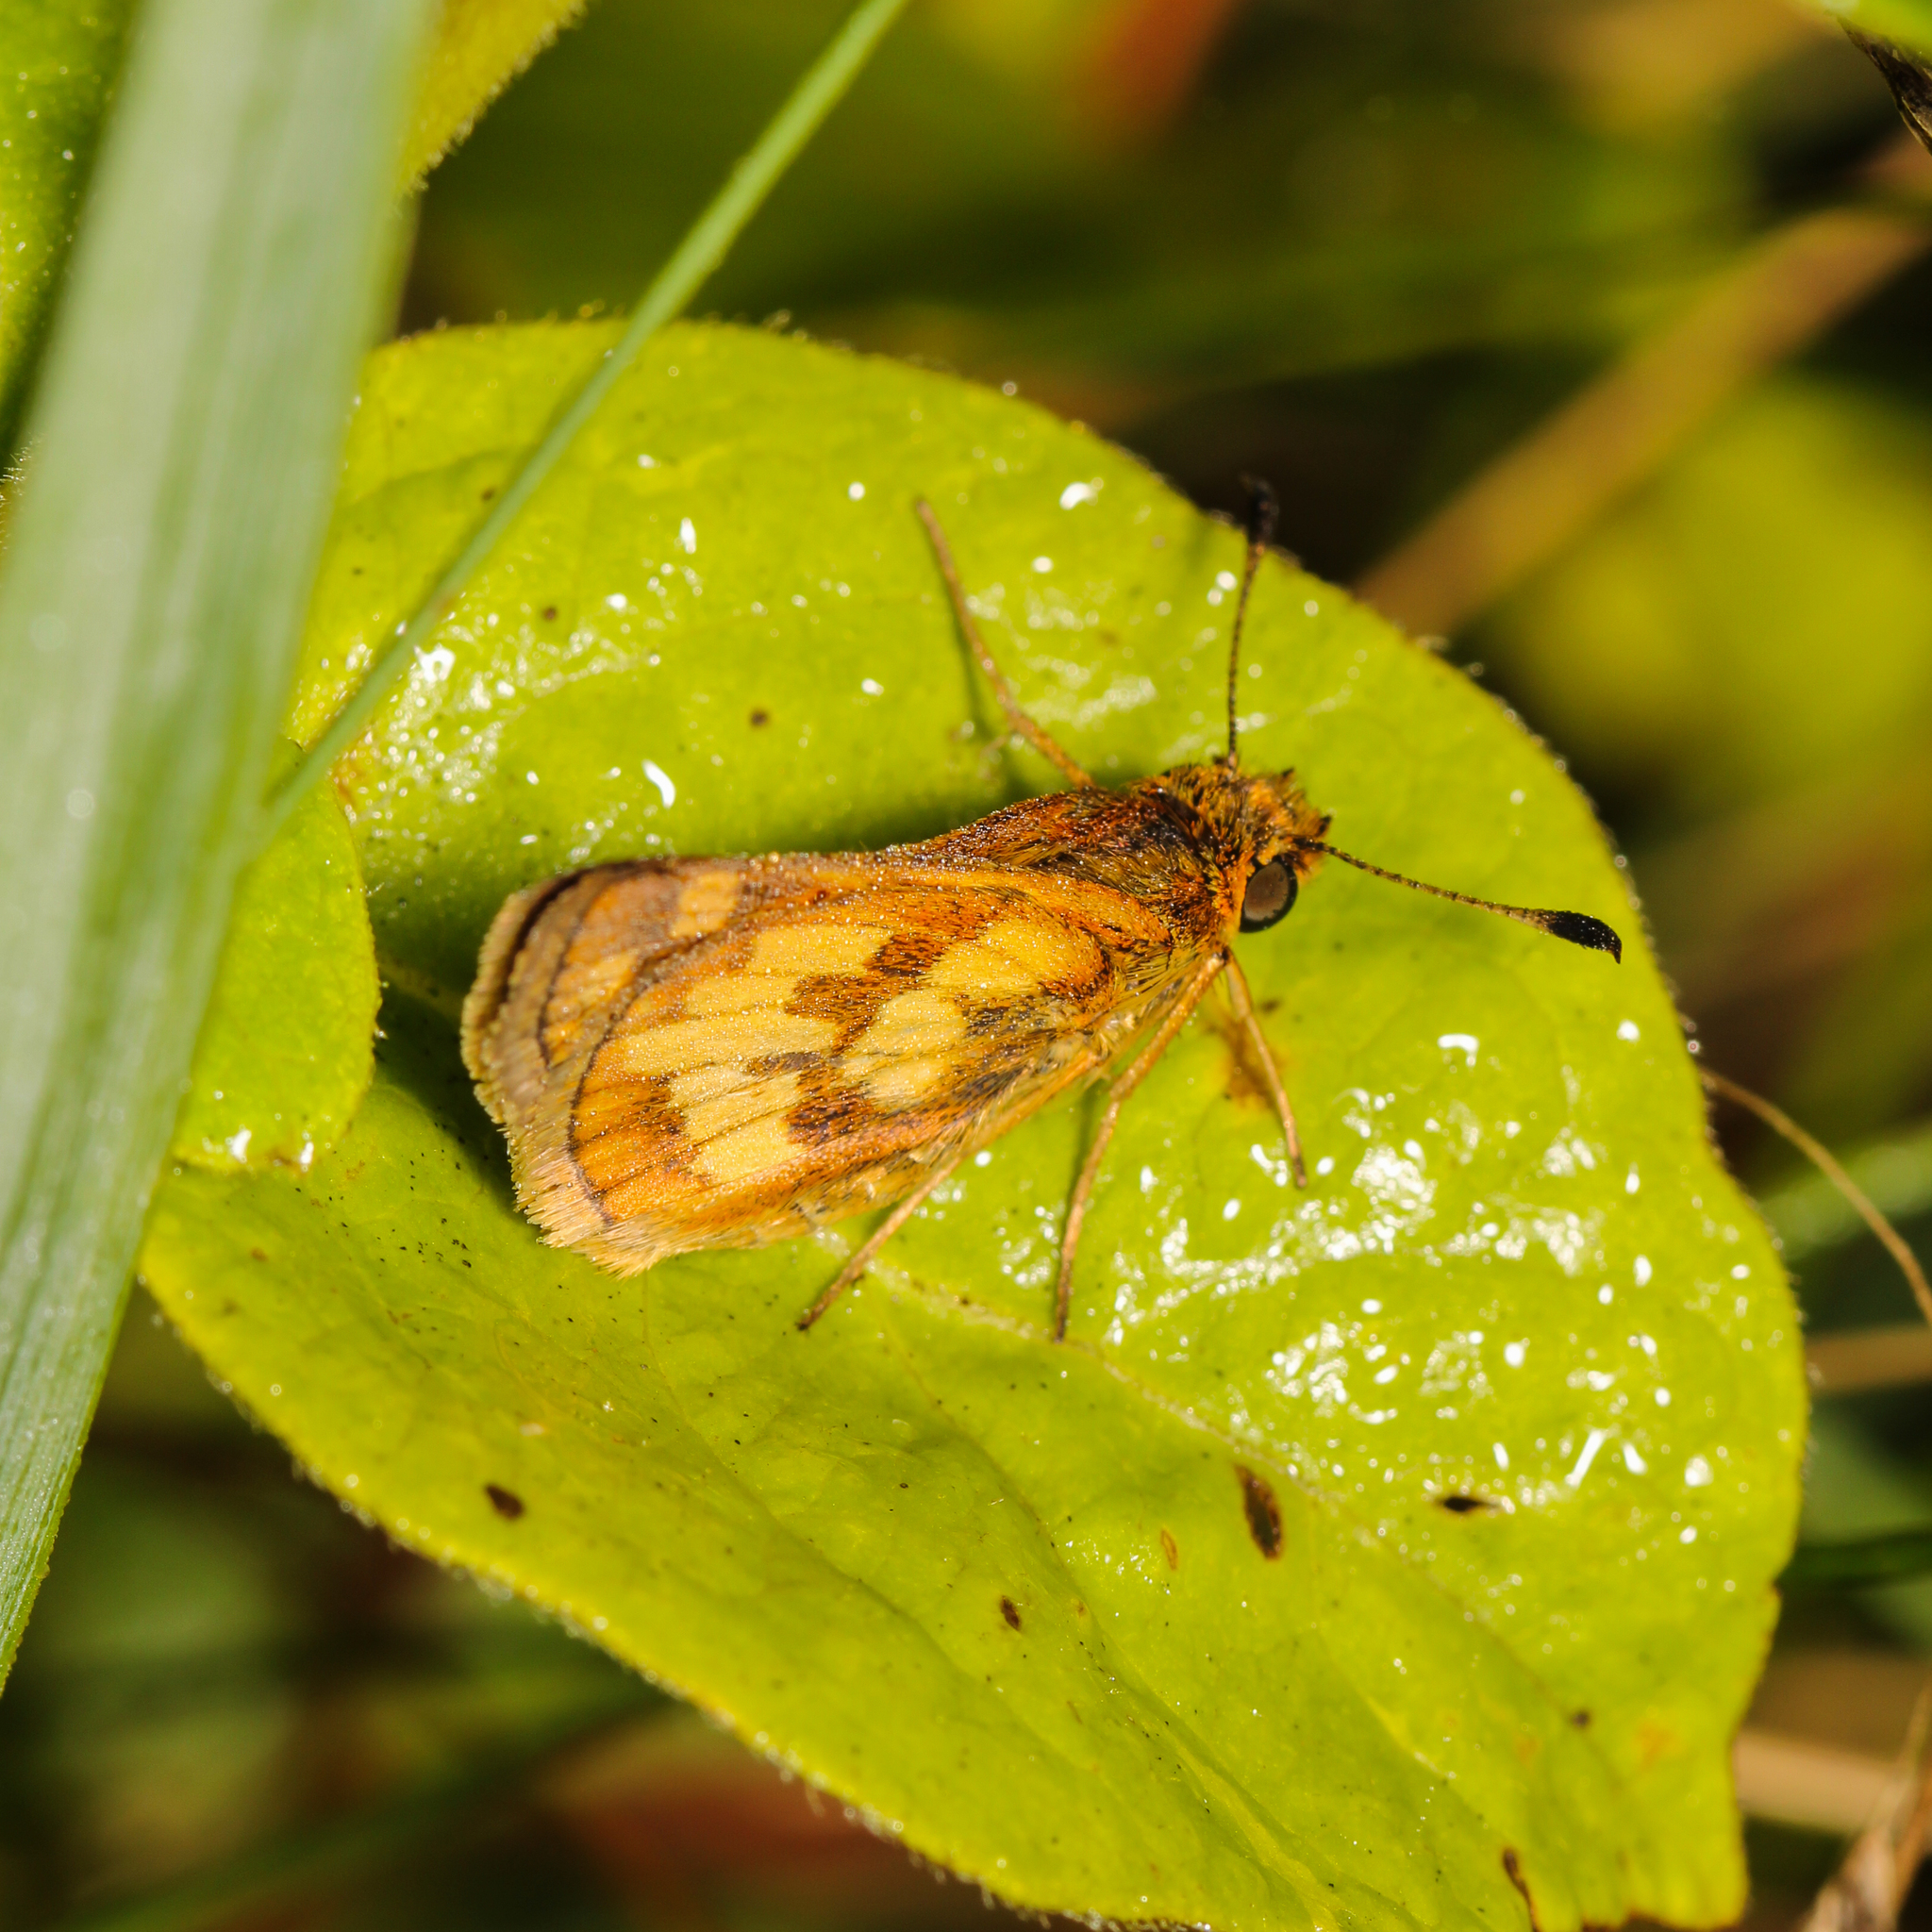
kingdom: Animalia
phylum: Arthropoda
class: Insecta
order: Lepidoptera
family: Hesperiidae
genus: Polites
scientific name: Polites coras
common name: Peck's skipper
